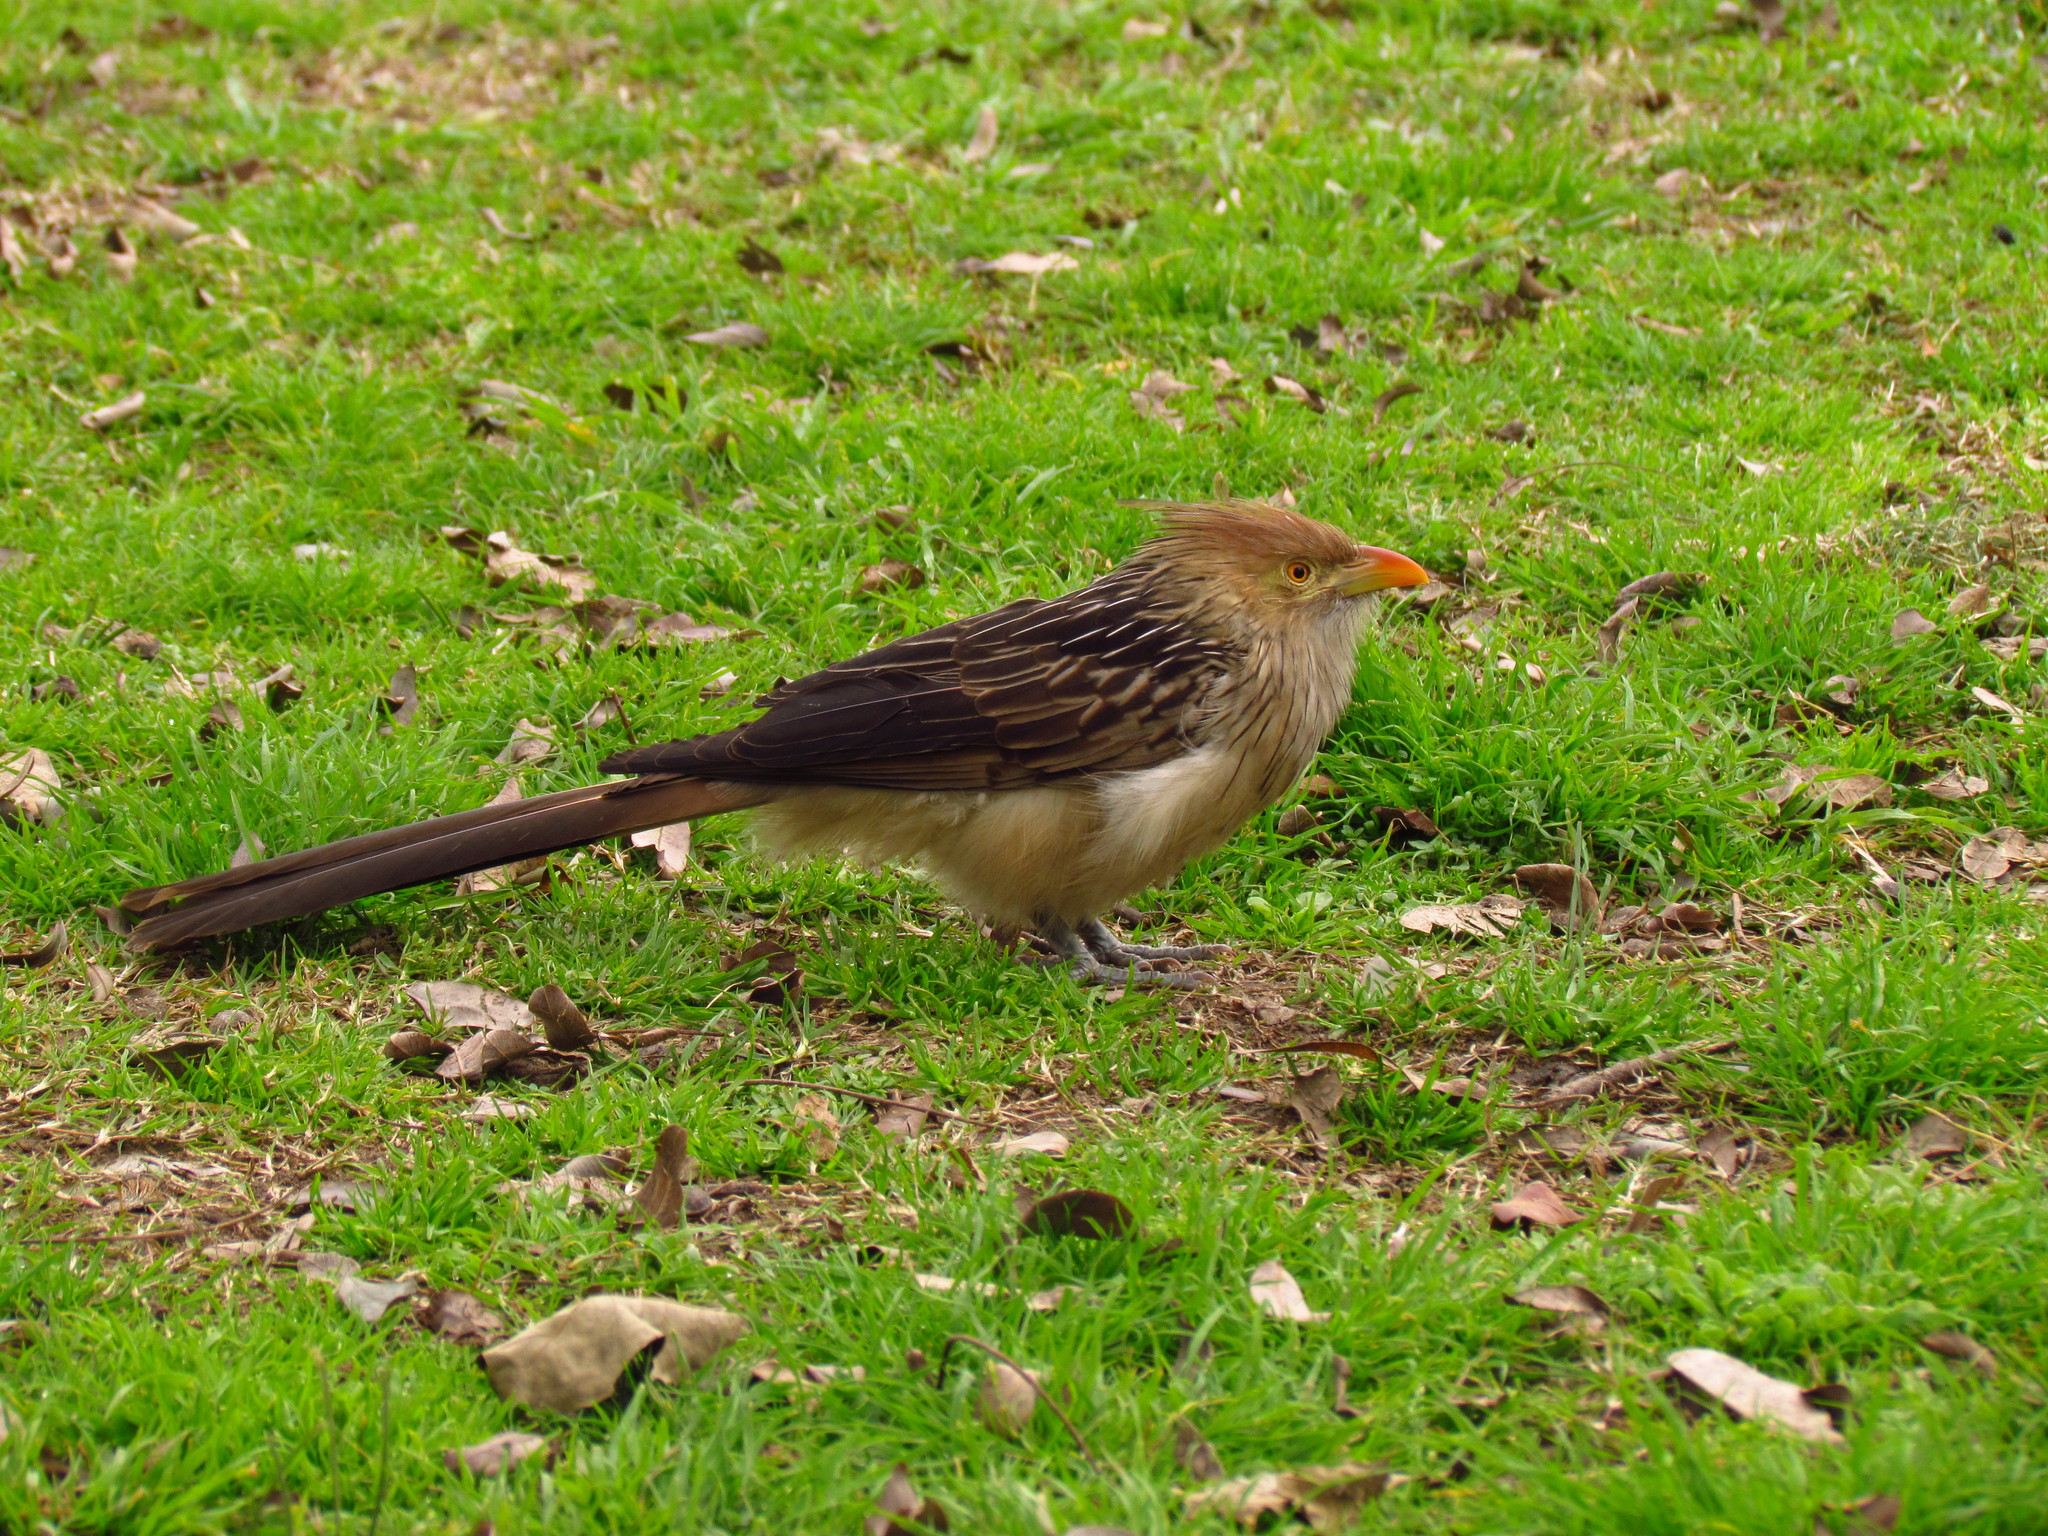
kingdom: Animalia
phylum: Chordata
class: Aves
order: Cuculiformes
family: Cuculidae
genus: Guira
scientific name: Guira guira
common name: Guira cuckoo
